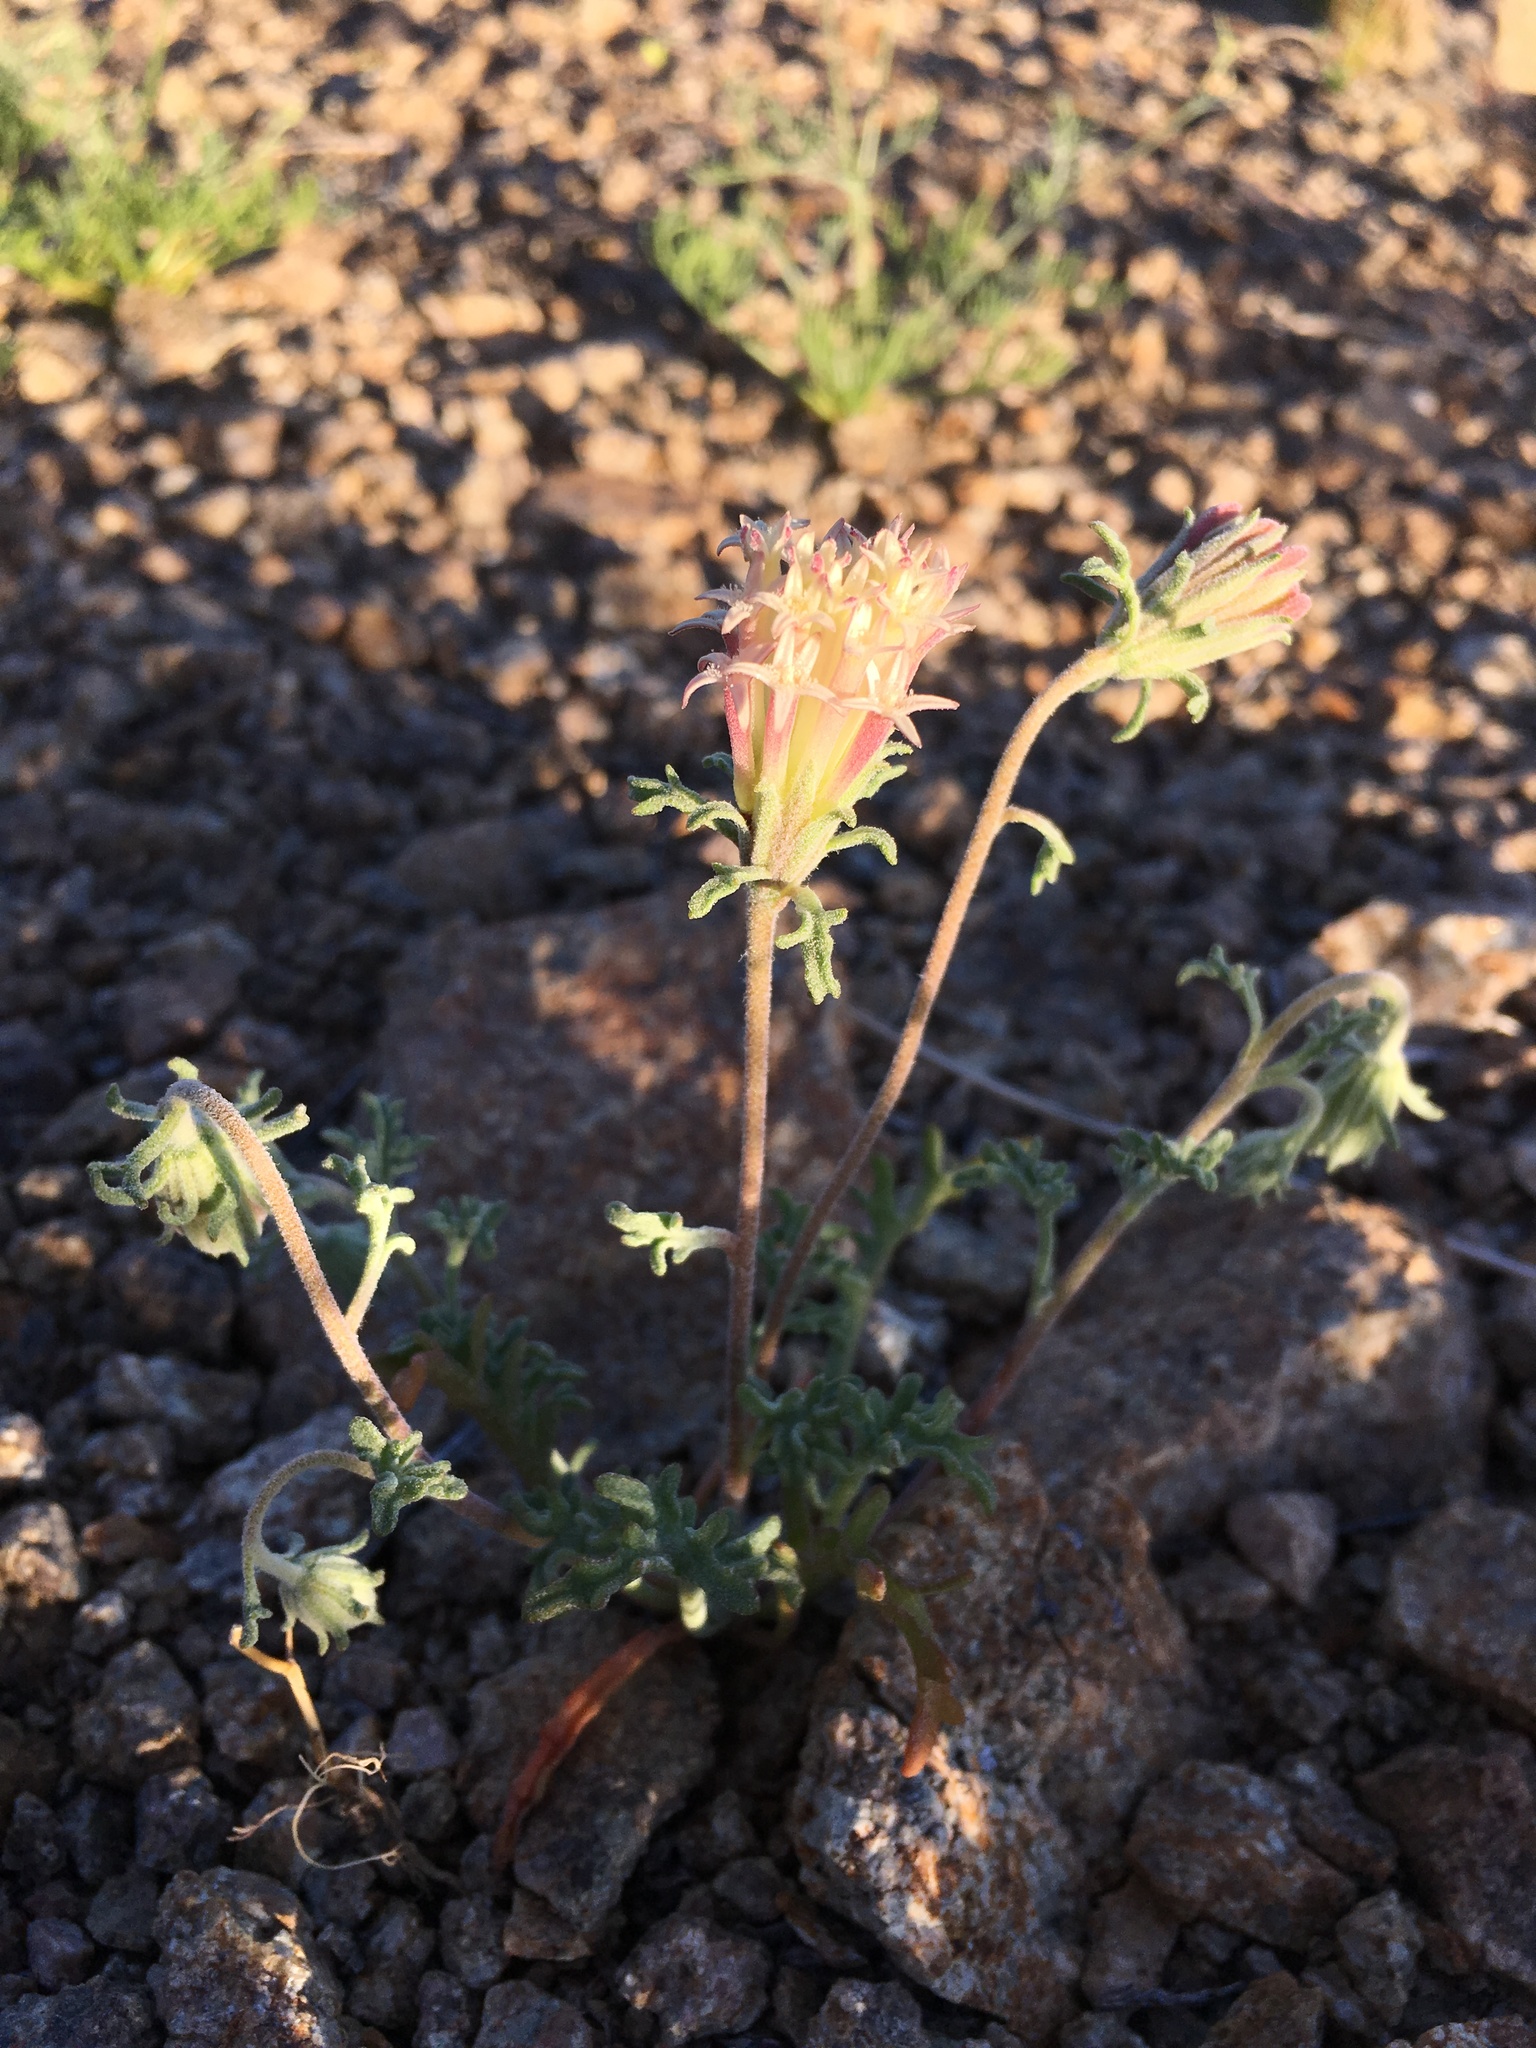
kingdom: Plantae
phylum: Tracheophyta
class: Magnoliopsida
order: Asterales
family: Asteraceae
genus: Chaenactis
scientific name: Chaenactis macrantha
